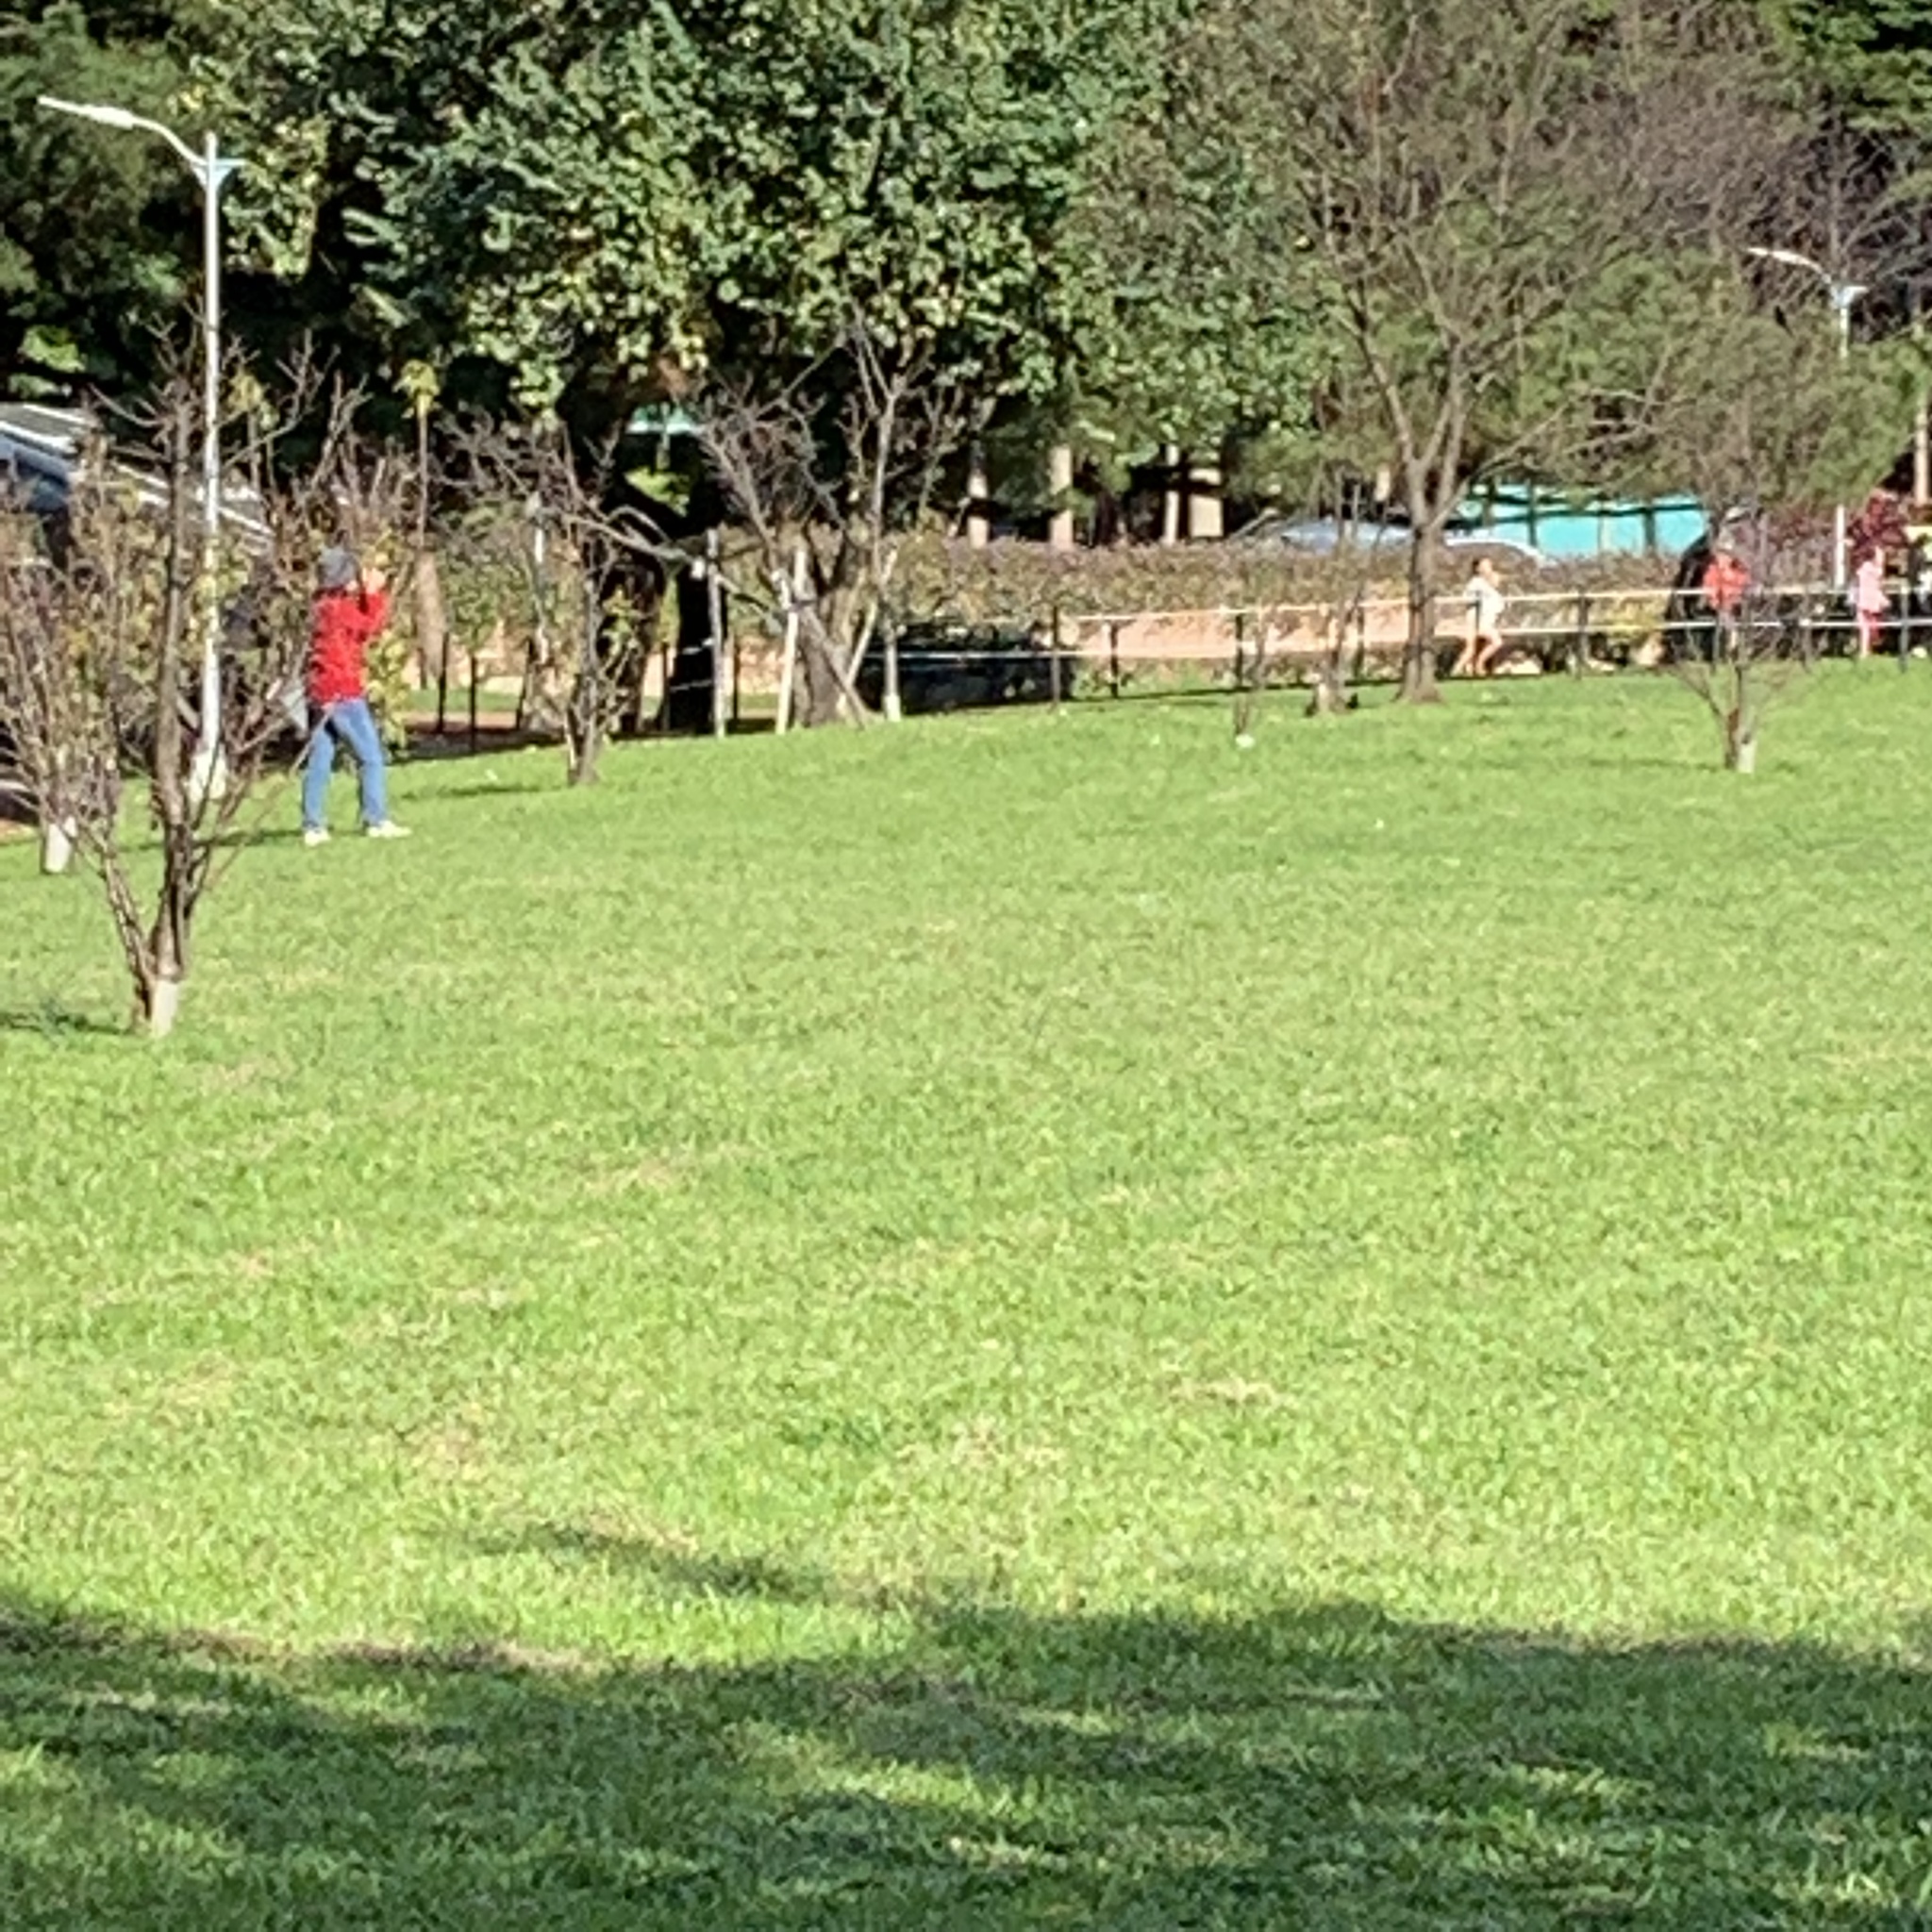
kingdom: Animalia
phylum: Chordata
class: Aves
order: Columbiformes
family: Columbidae
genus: Streptopelia
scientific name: Streptopelia orientalis
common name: Oriental turtle dove
